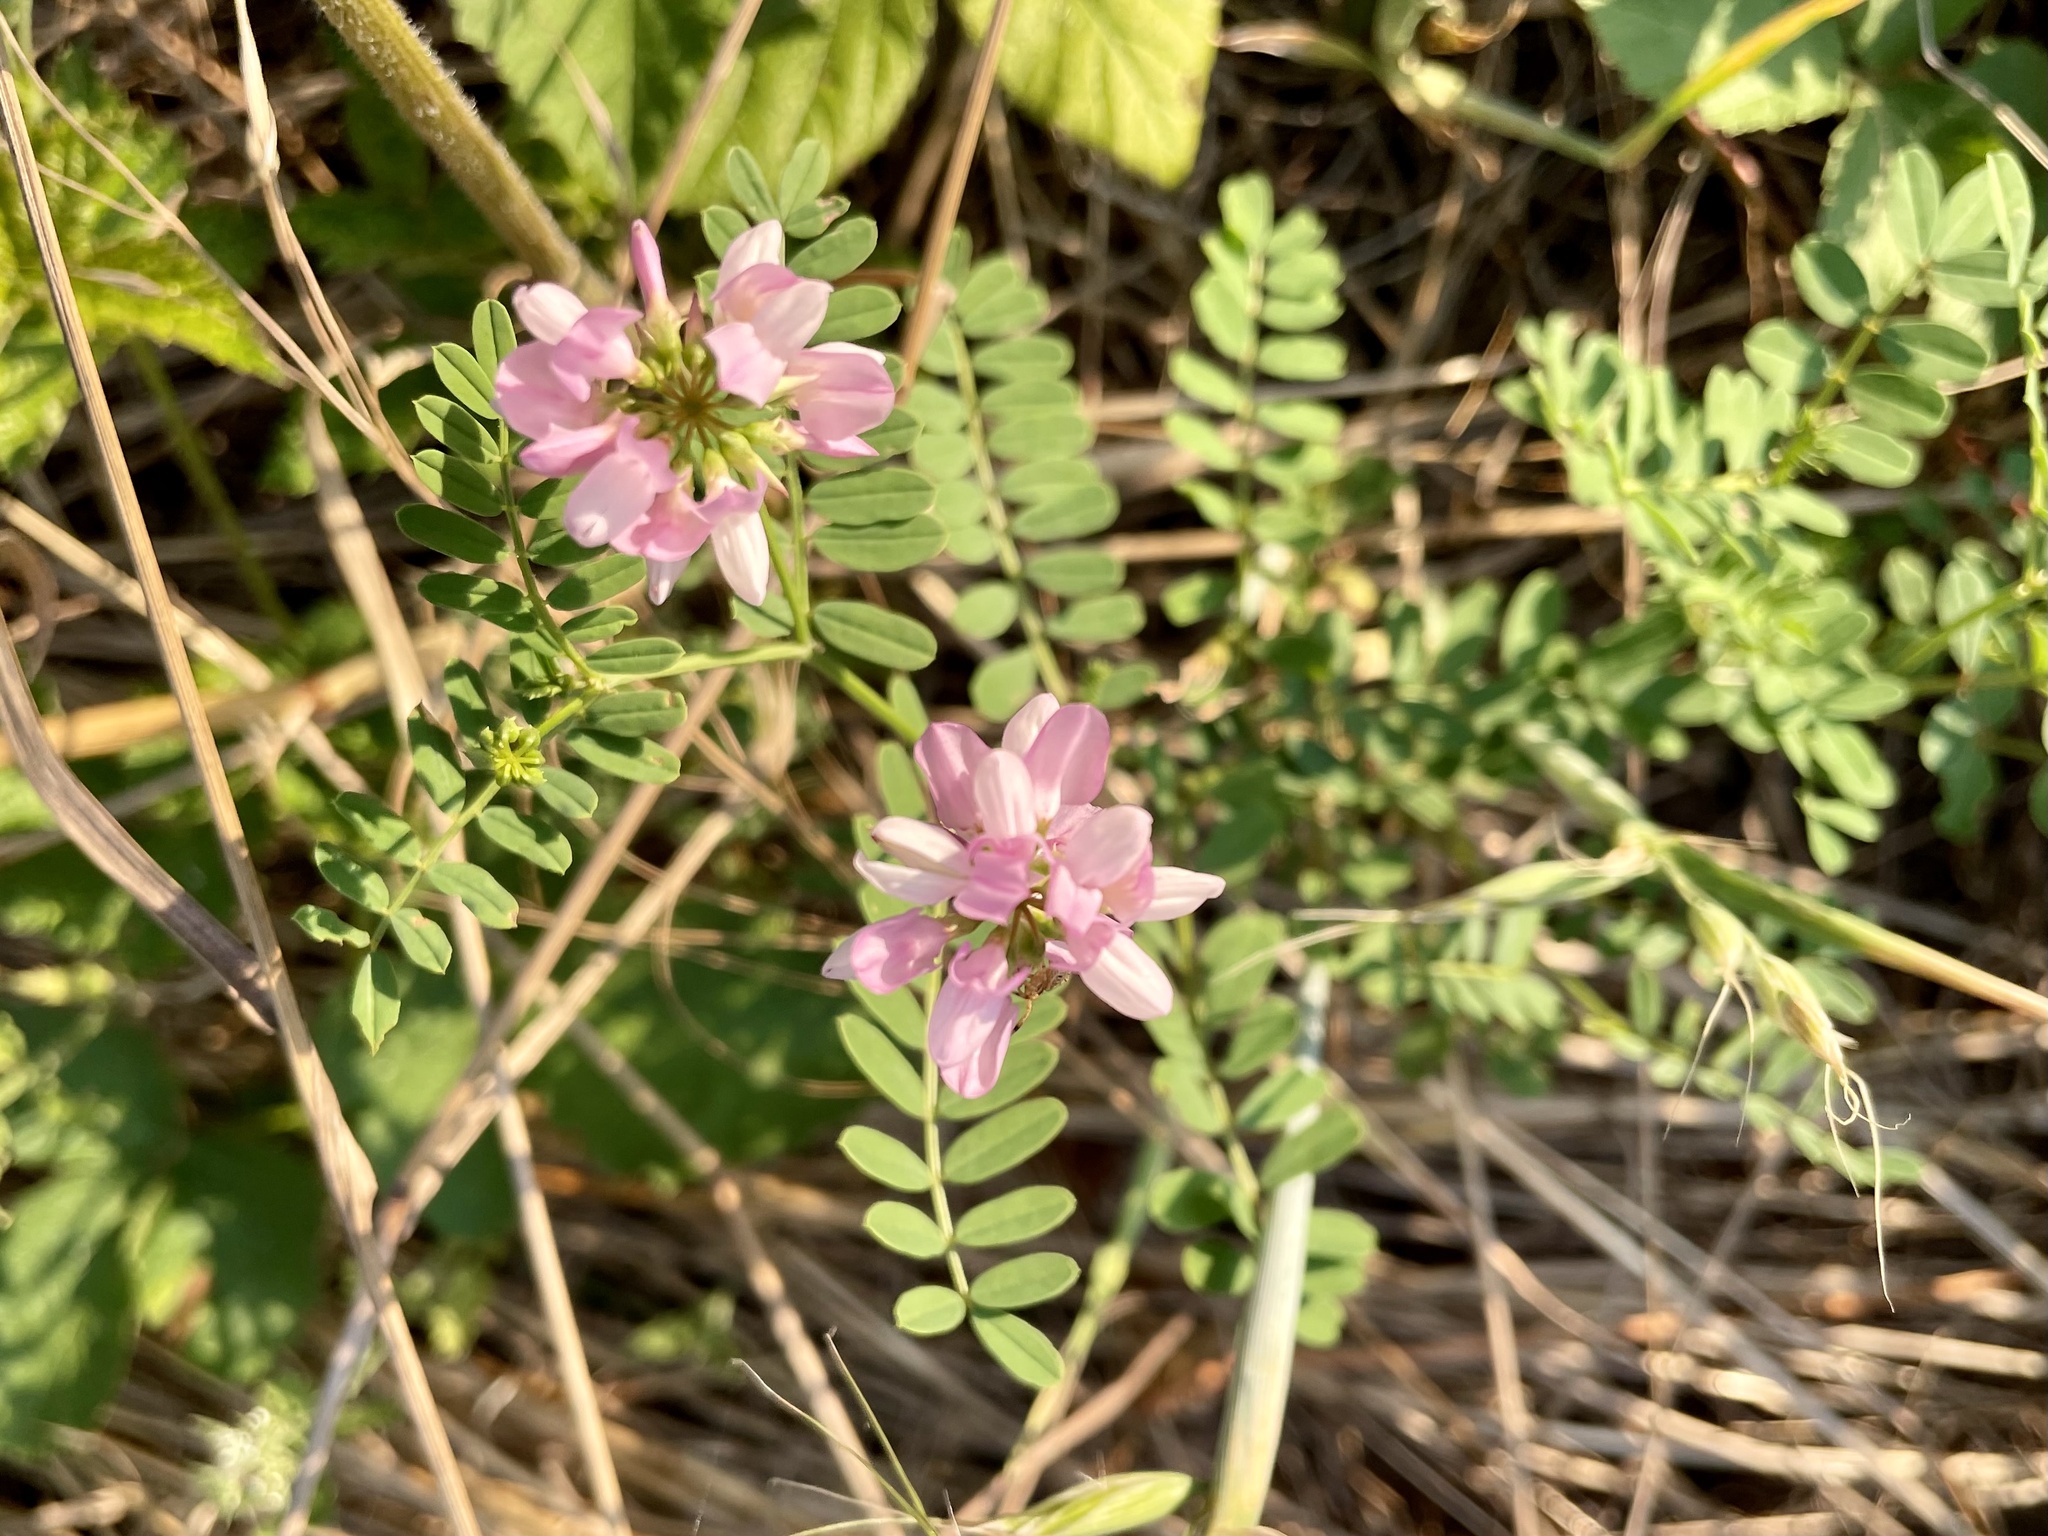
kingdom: Plantae
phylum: Tracheophyta
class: Magnoliopsida
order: Fabales
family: Fabaceae
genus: Coronilla
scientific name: Coronilla varia
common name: Crownvetch
